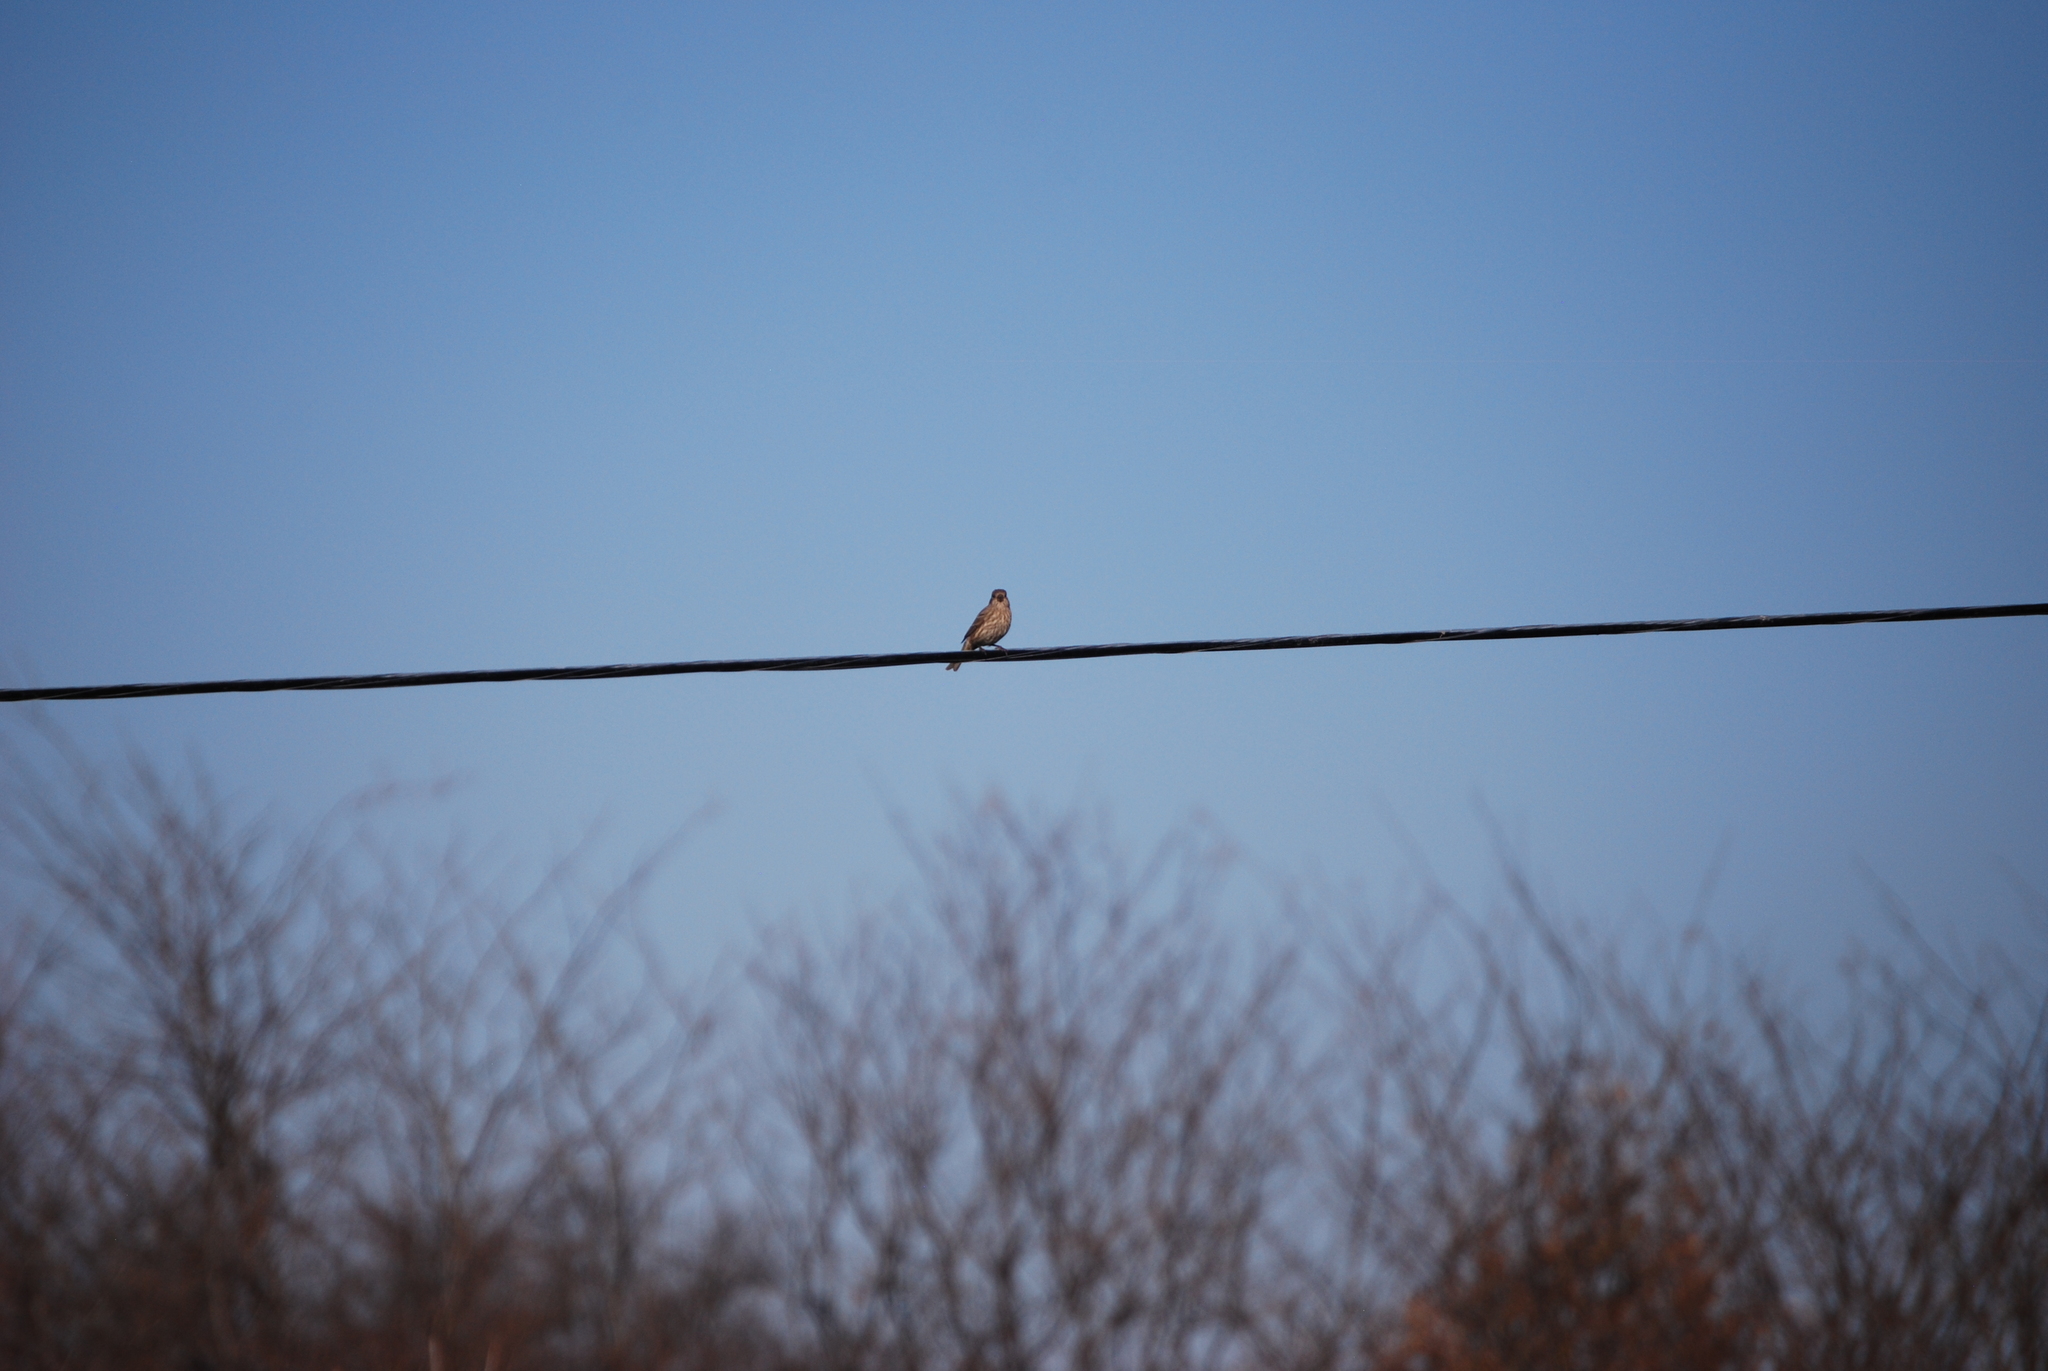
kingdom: Animalia
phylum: Chordata
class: Aves
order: Passeriformes
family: Fringillidae
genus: Haemorhous
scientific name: Haemorhous mexicanus
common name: House finch
